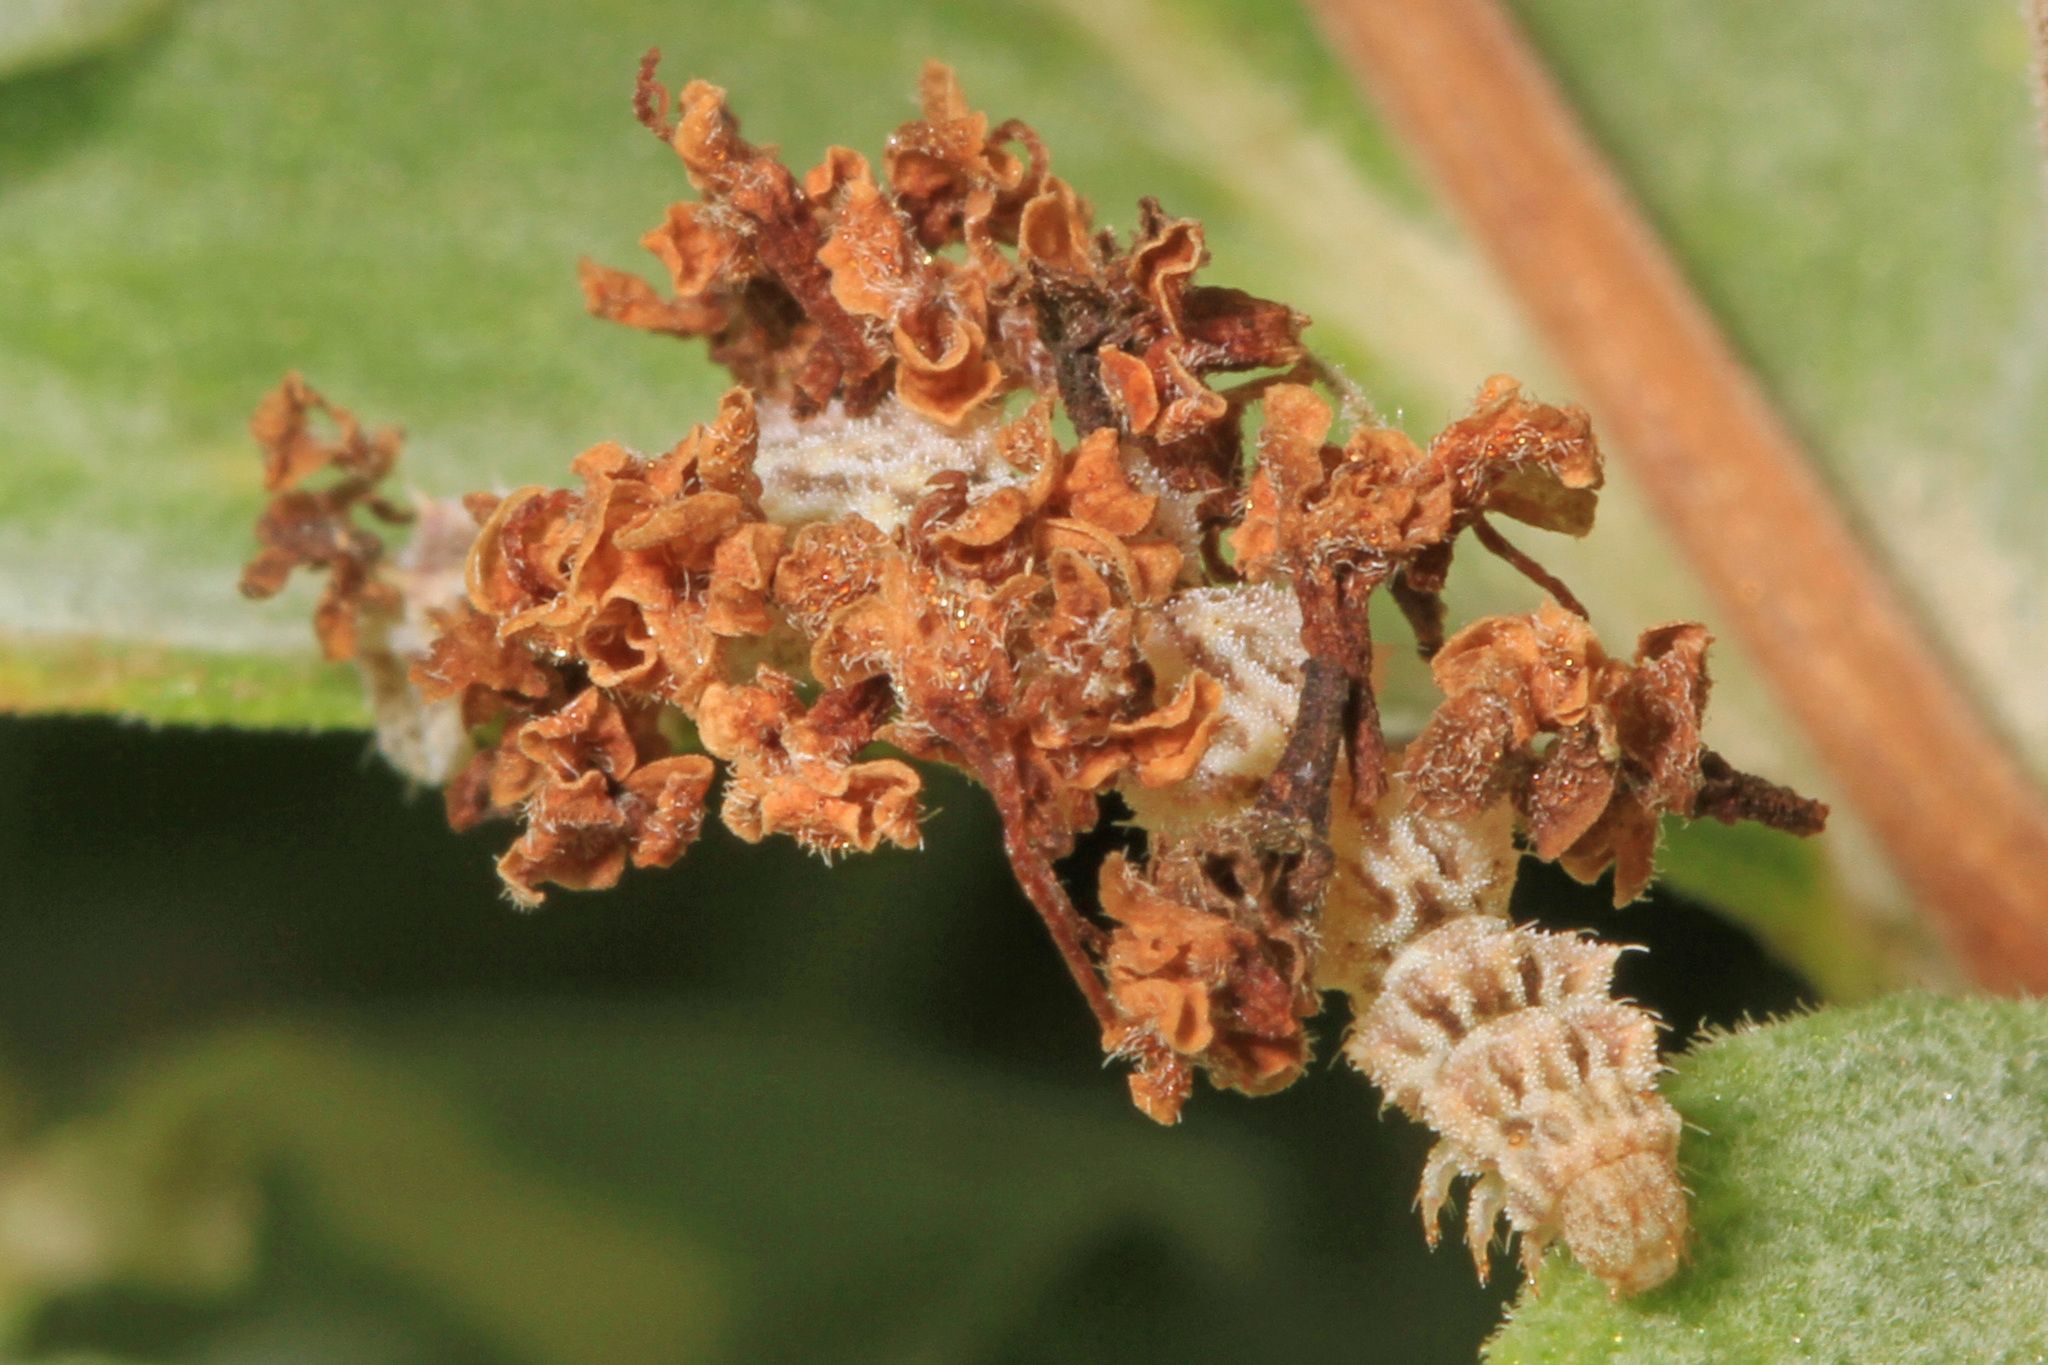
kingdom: Animalia
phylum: Arthropoda
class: Insecta
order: Lepidoptera
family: Geometridae
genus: Synchlora
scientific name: Synchlora aerata
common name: Wavy-lined emerald
